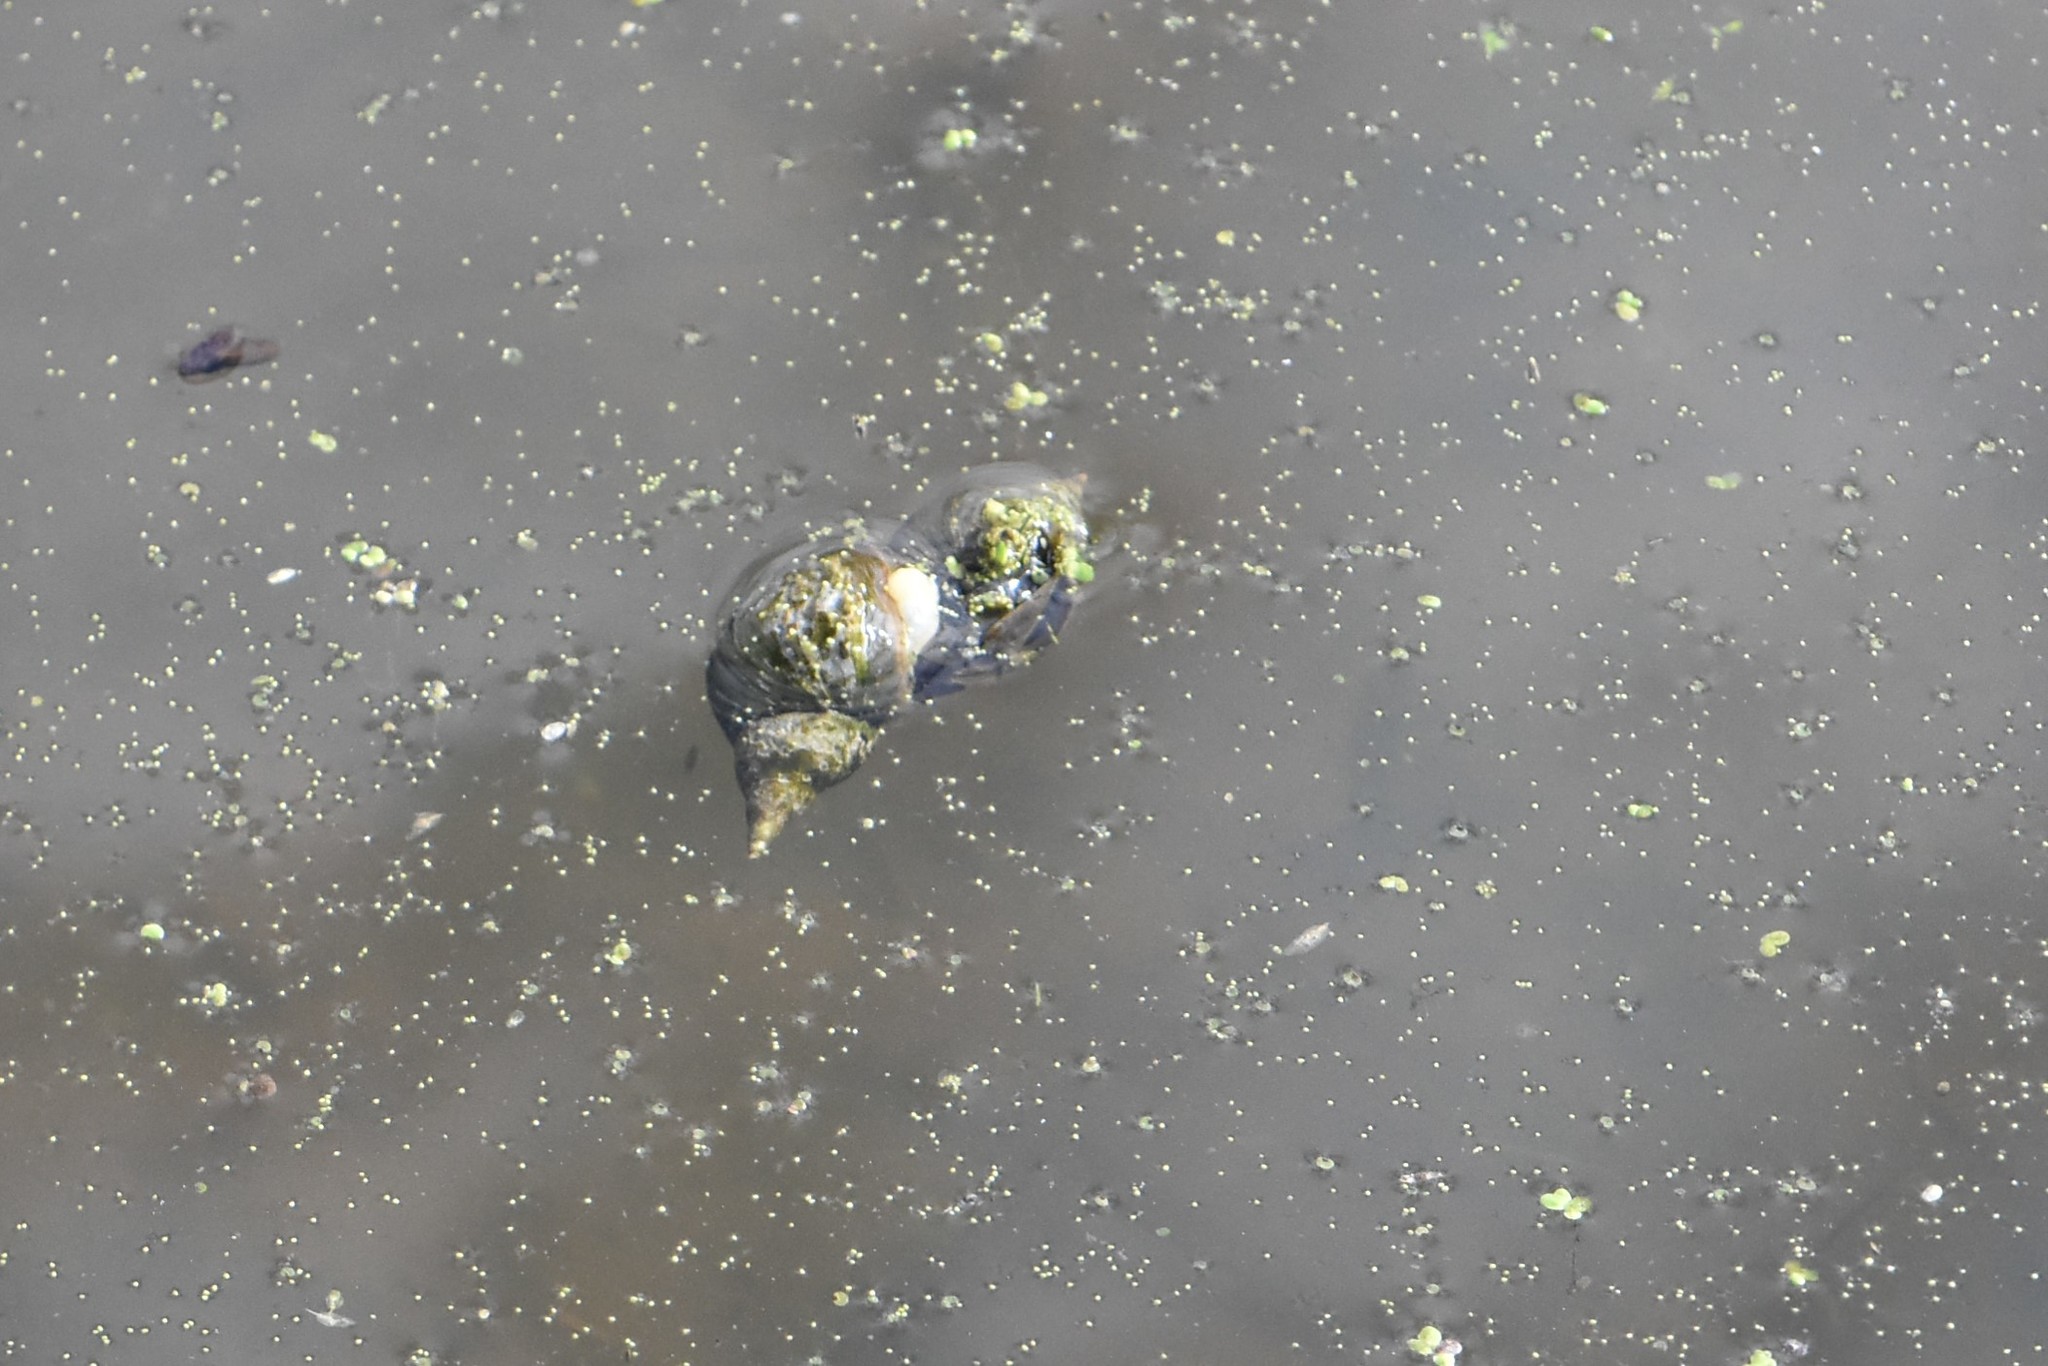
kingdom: Animalia
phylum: Mollusca
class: Gastropoda
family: Lymnaeidae
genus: Lymnaea
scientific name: Lymnaea stagnalis
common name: Great pond snail
